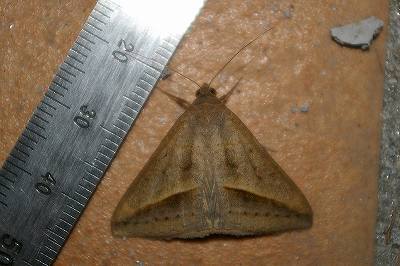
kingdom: Animalia
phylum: Arthropoda
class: Insecta
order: Lepidoptera
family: Erebidae
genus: Mocis
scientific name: Mocis frugalis
